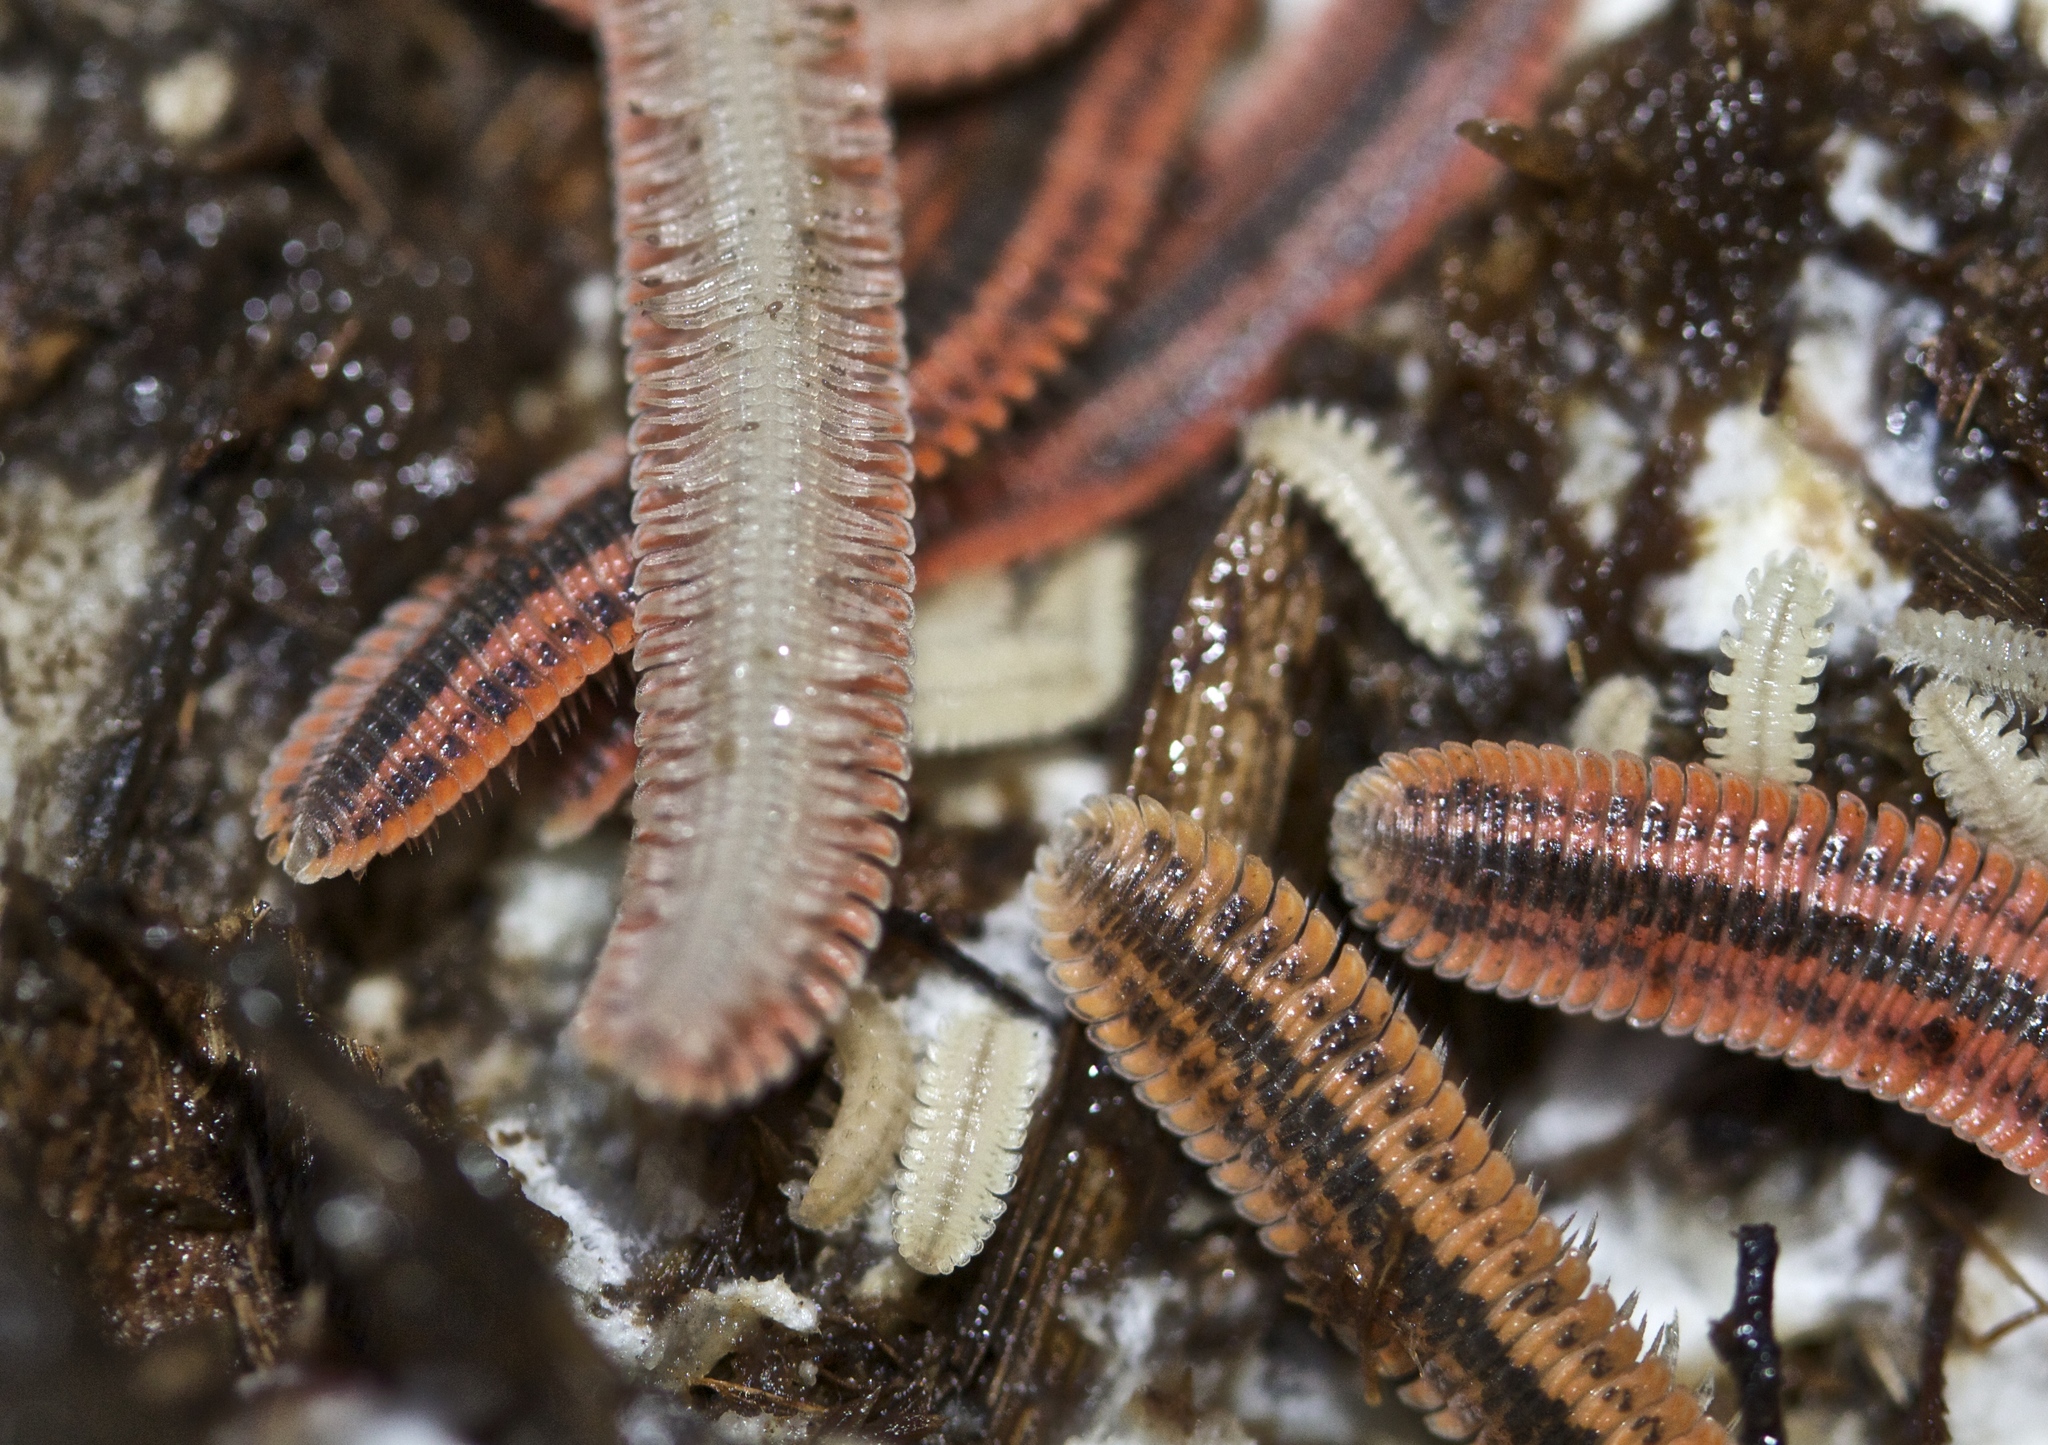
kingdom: Animalia
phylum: Arthropoda
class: Diplopoda
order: Platydesmida
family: Andrognathidae
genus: Brachycybe
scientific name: Brachycybe producta
